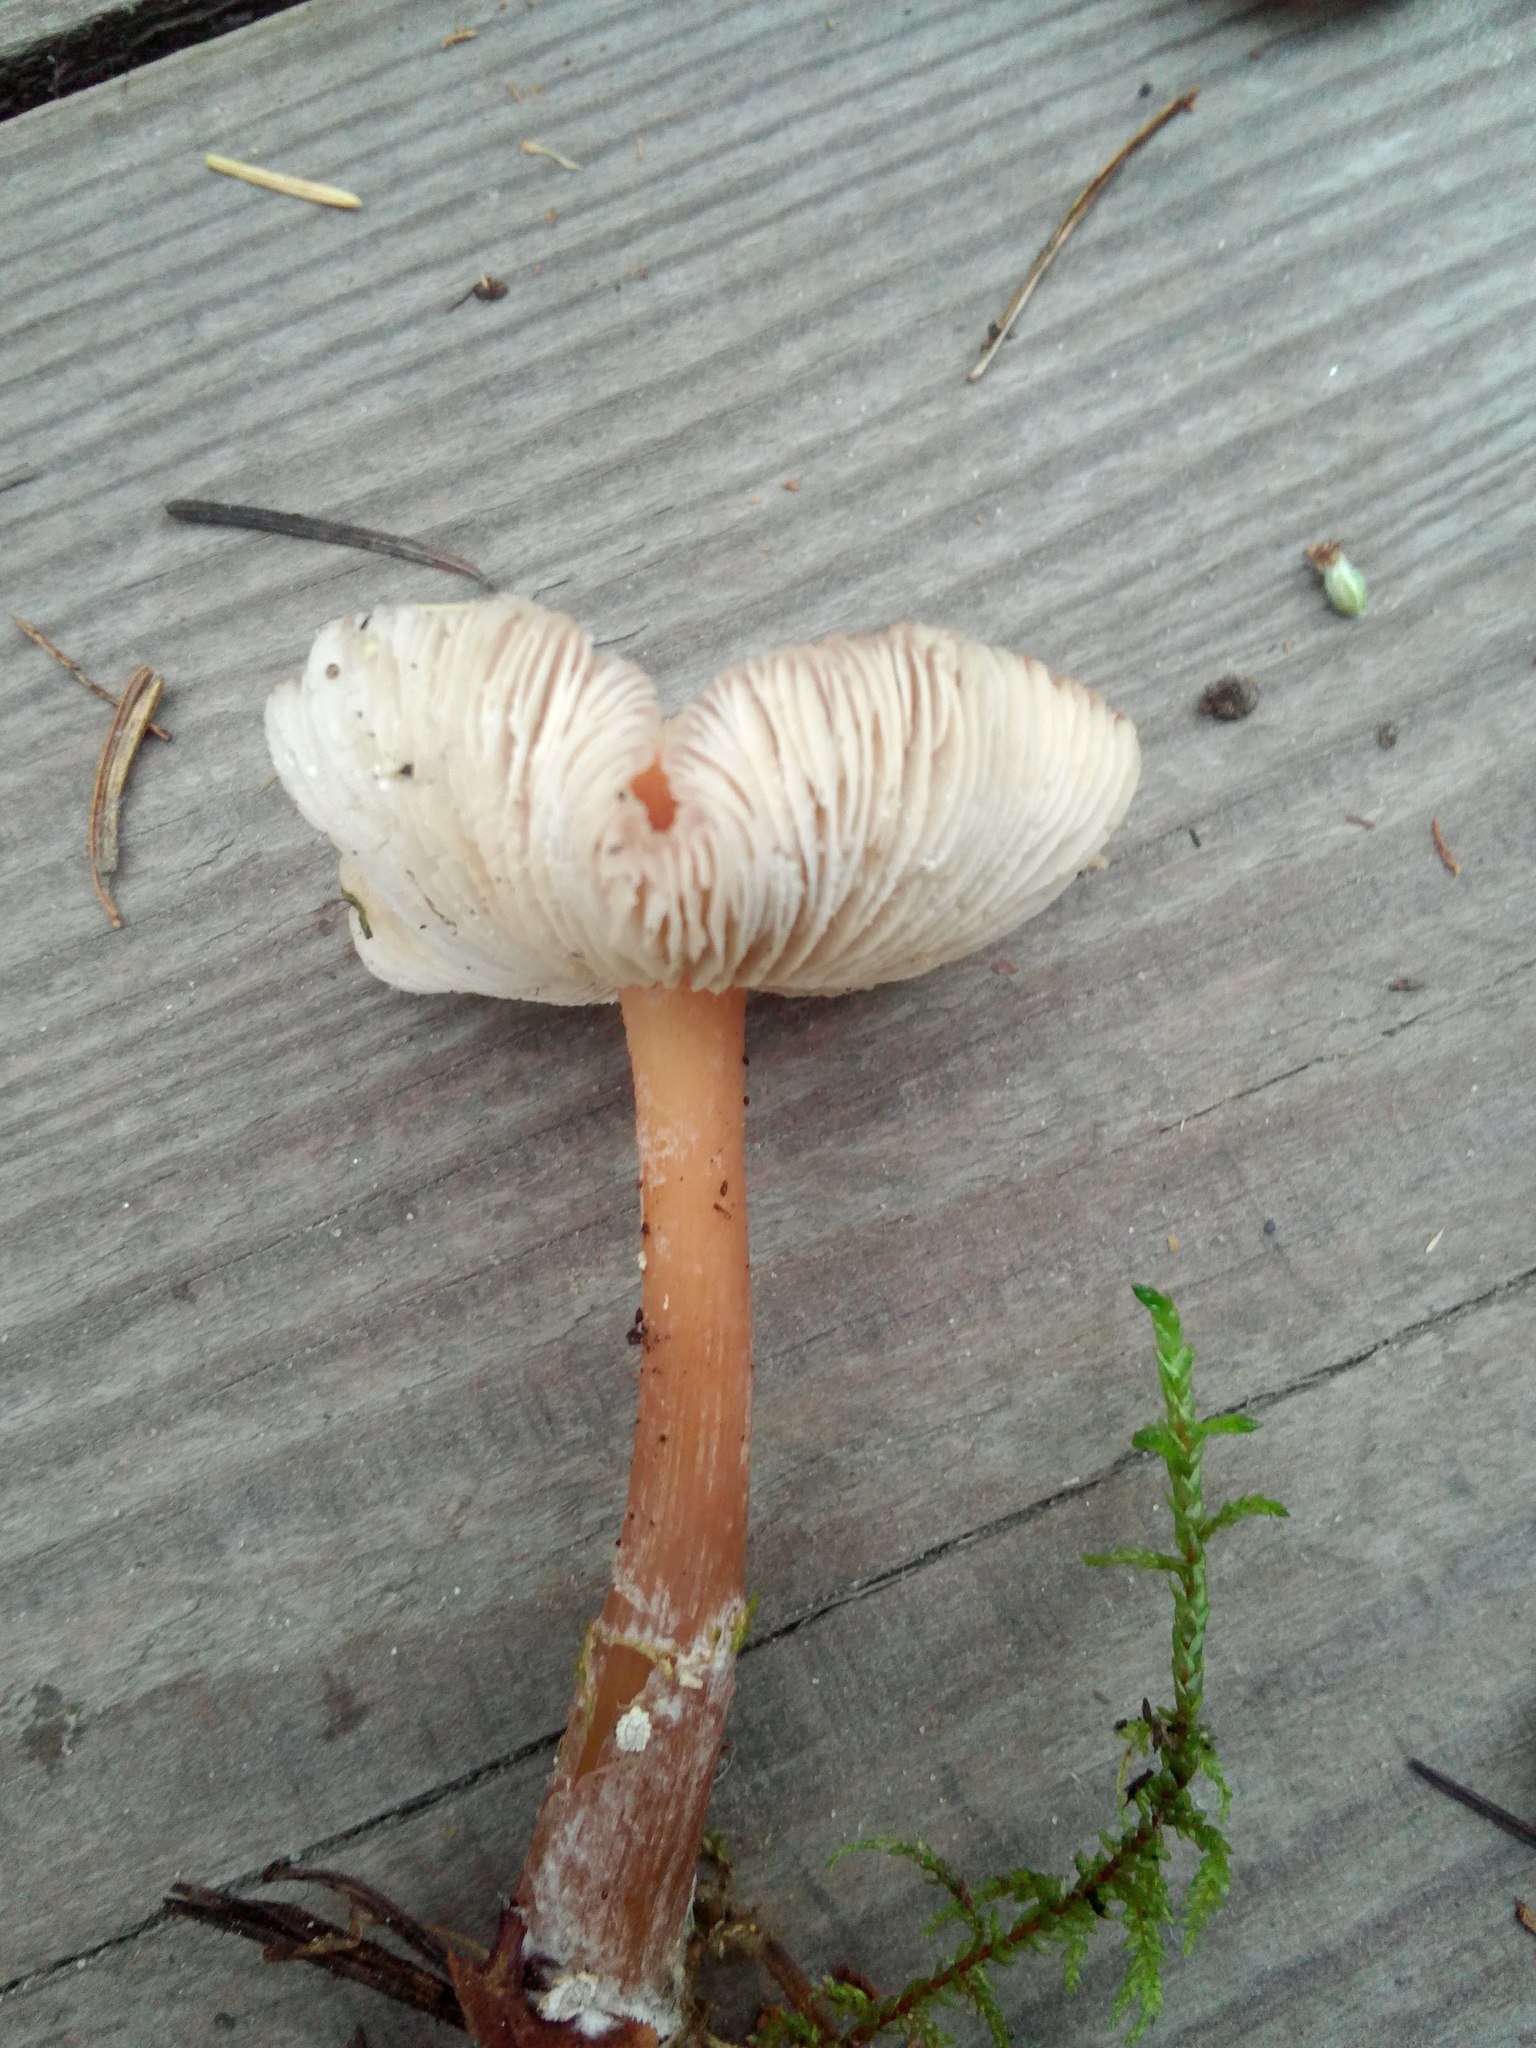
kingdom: Fungi
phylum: Basidiomycota
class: Agaricomycetes
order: Agaricales
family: Omphalotaceae
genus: Rhodocollybia
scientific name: Rhodocollybia butyracea
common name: Butter cap
